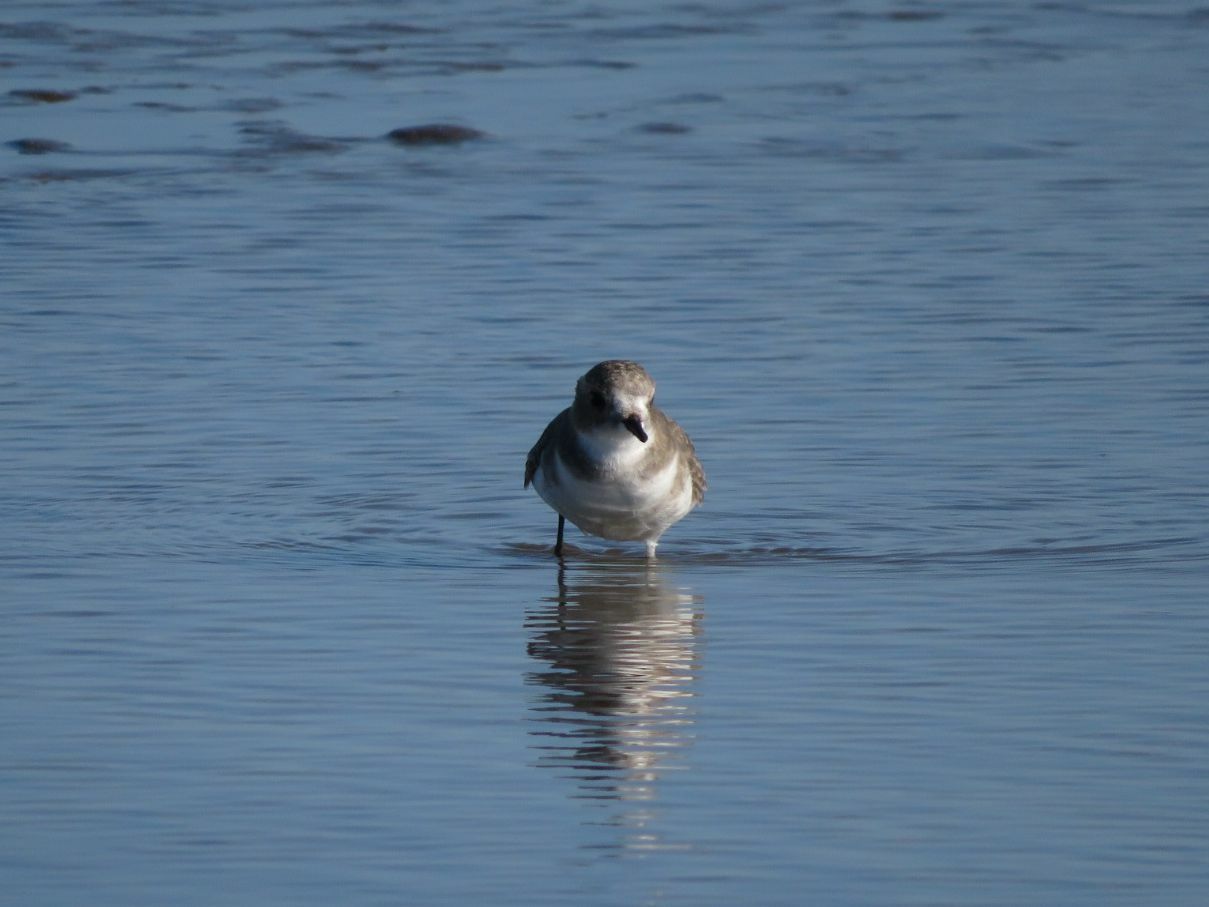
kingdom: Animalia
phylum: Chordata
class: Aves
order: Charadriiformes
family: Charadriidae
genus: Anarhynchus
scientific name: Anarhynchus
